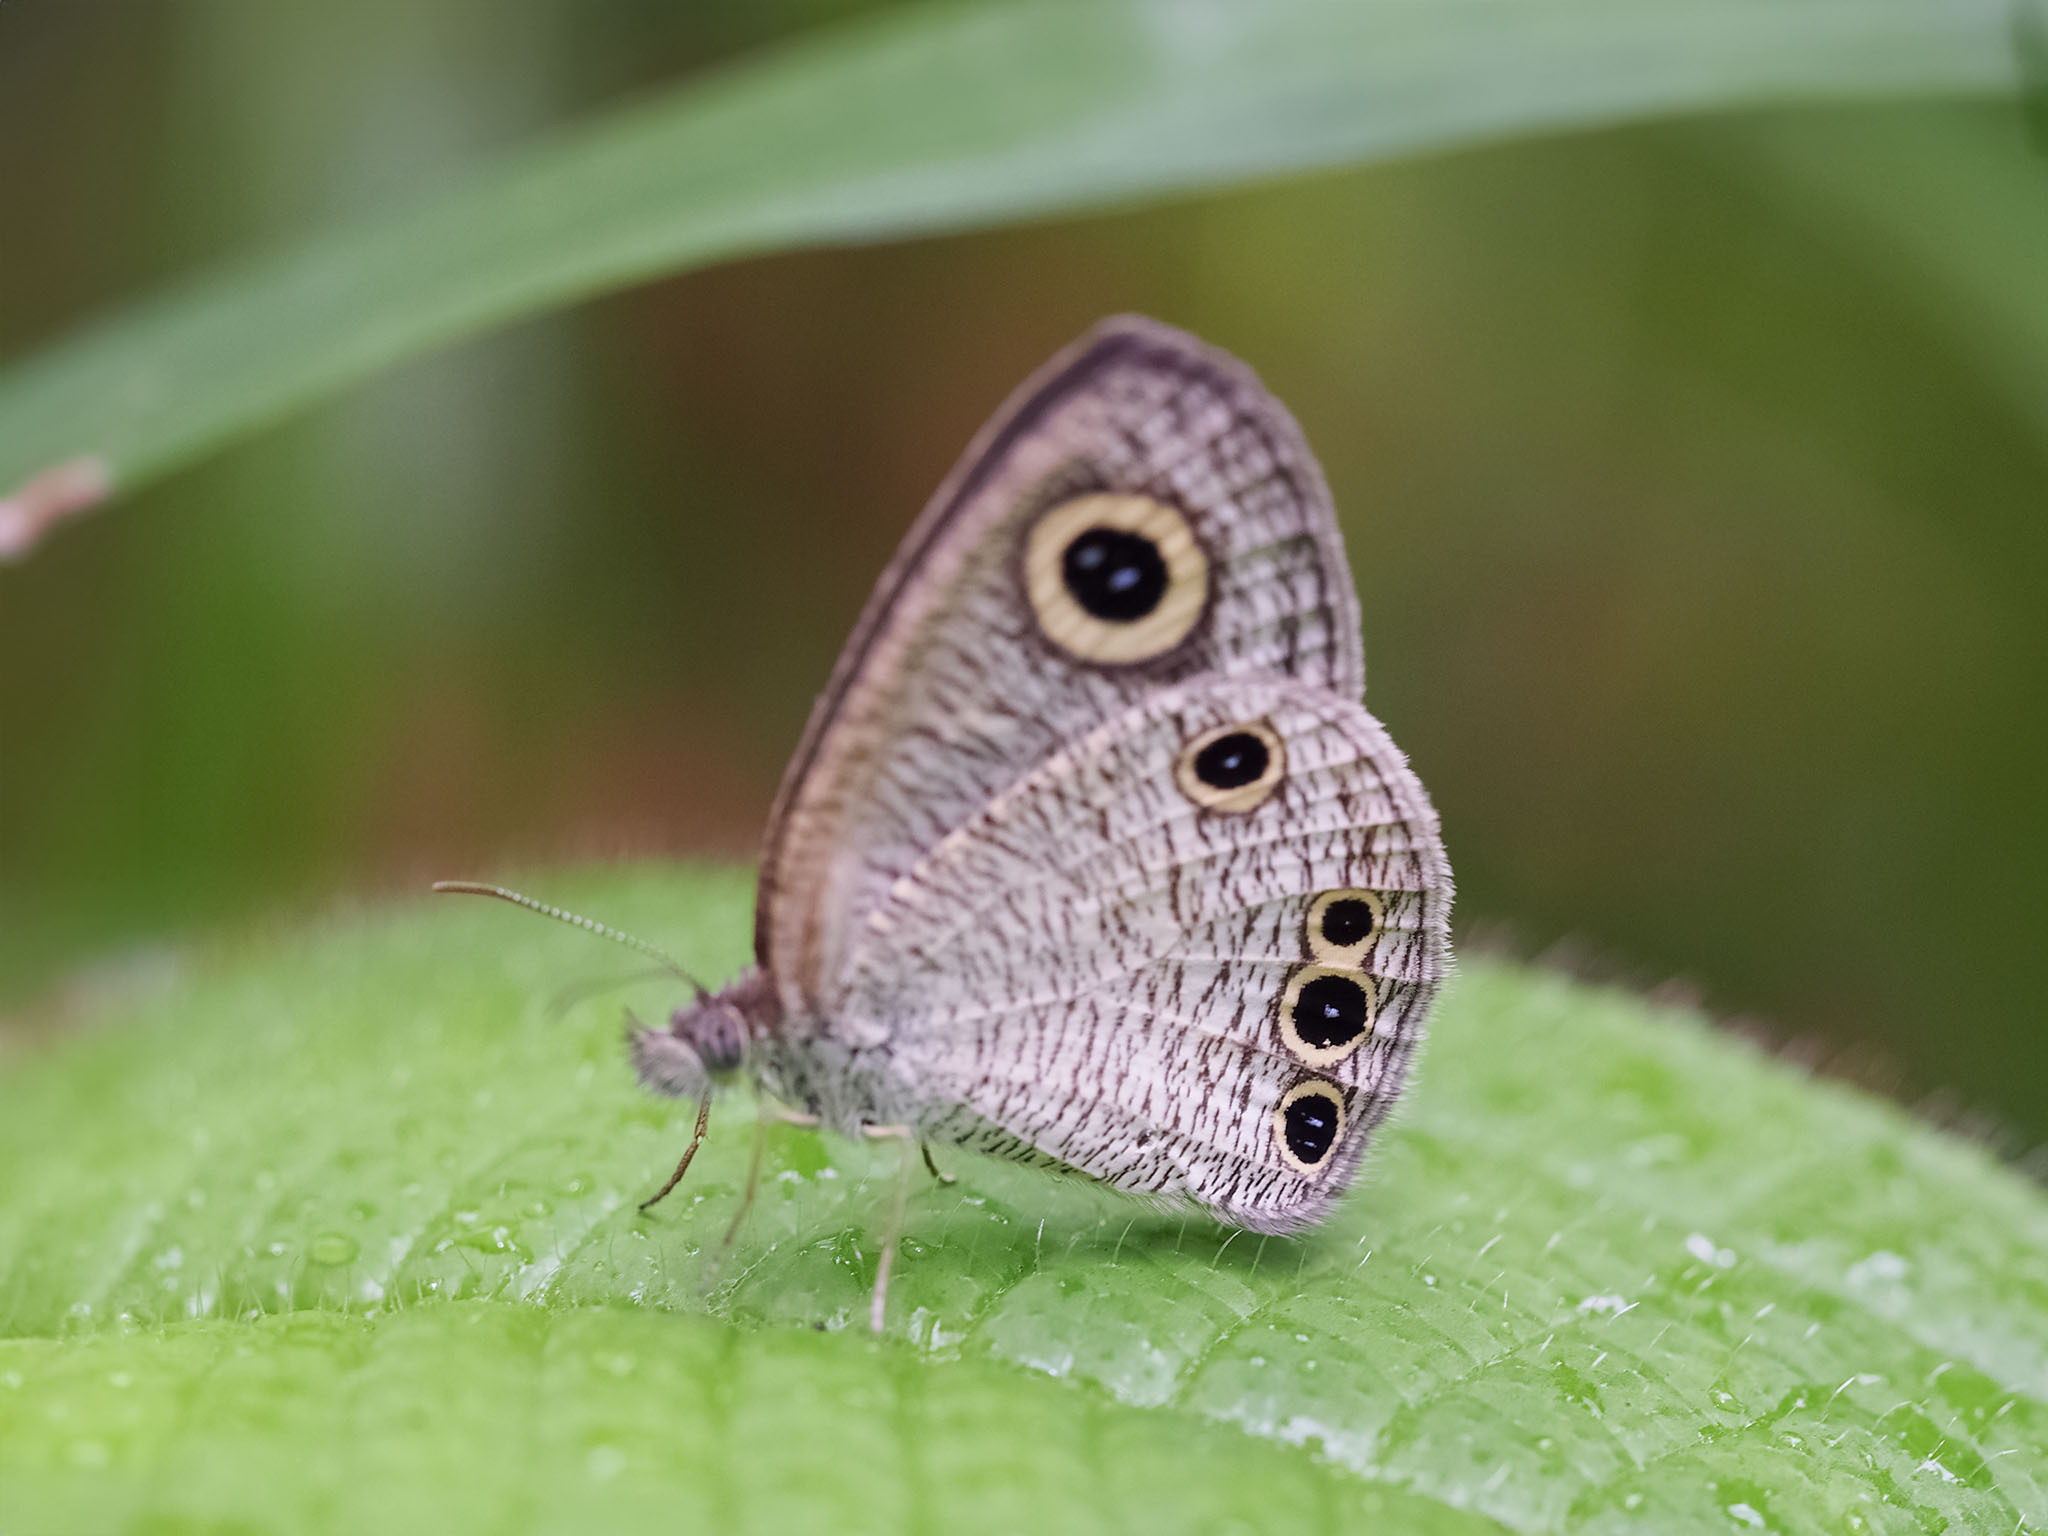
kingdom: Animalia
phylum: Arthropoda
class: Insecta
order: Lepidoptera
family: Nymphalidae
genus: Ypthima
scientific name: Ypthima huebneri
